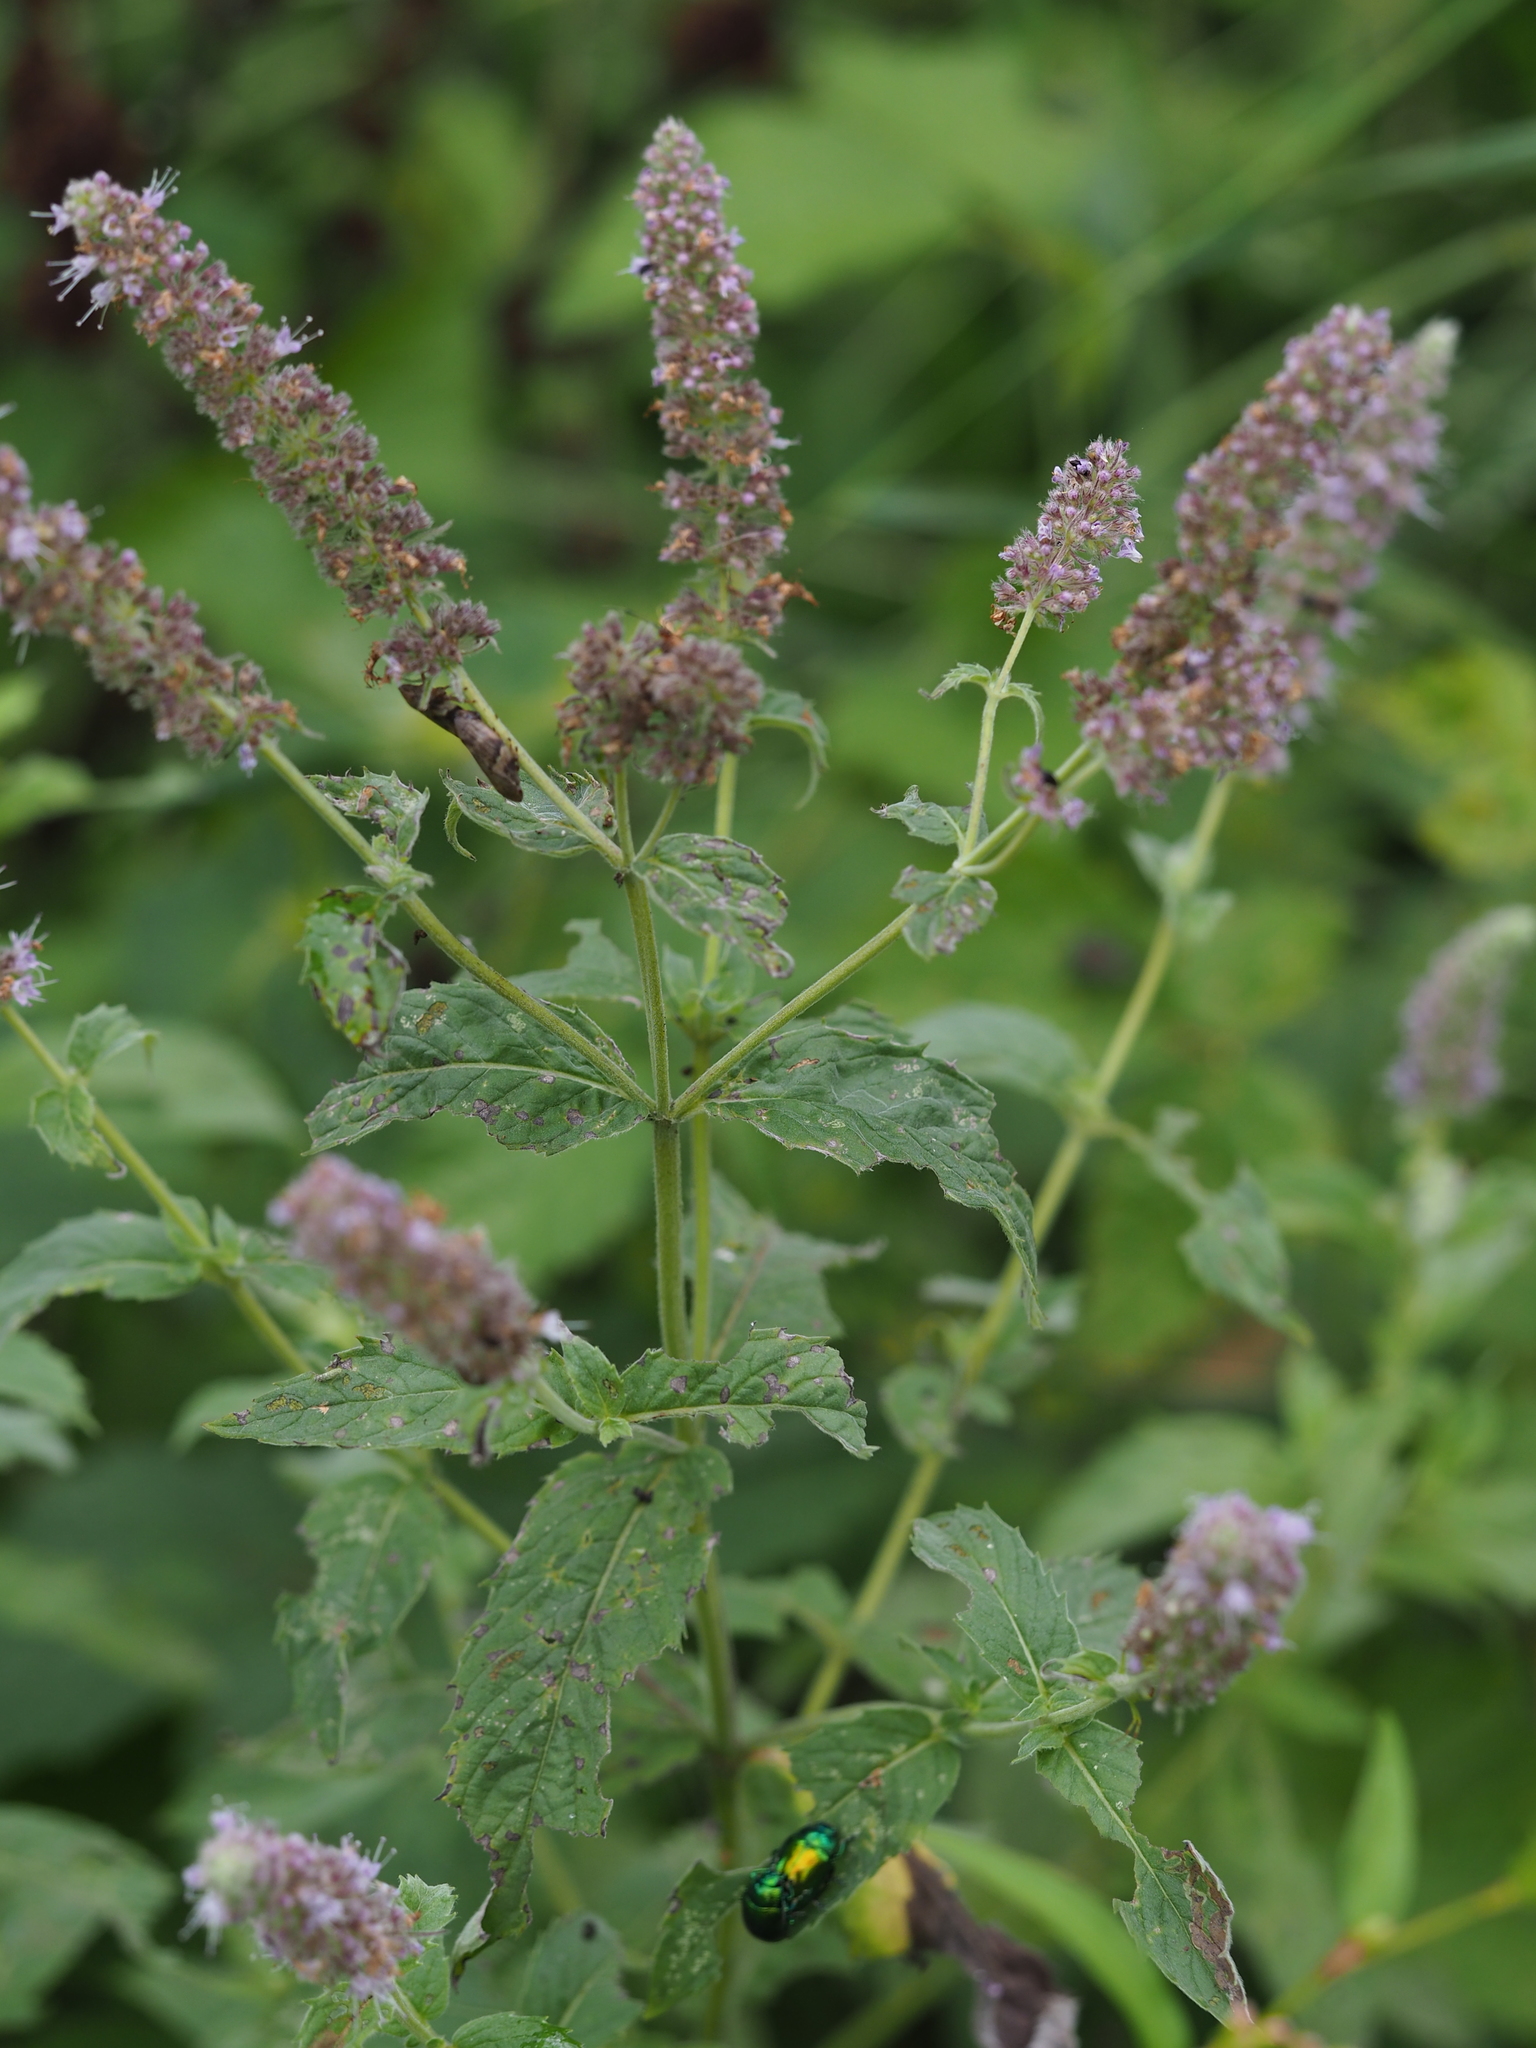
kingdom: Animalia
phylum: Arthropoda
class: Insecta
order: Coleoptera
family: Chrysomelidae
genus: Chrysolina
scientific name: Chrysolina herbacea
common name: Mint leaf beatle
